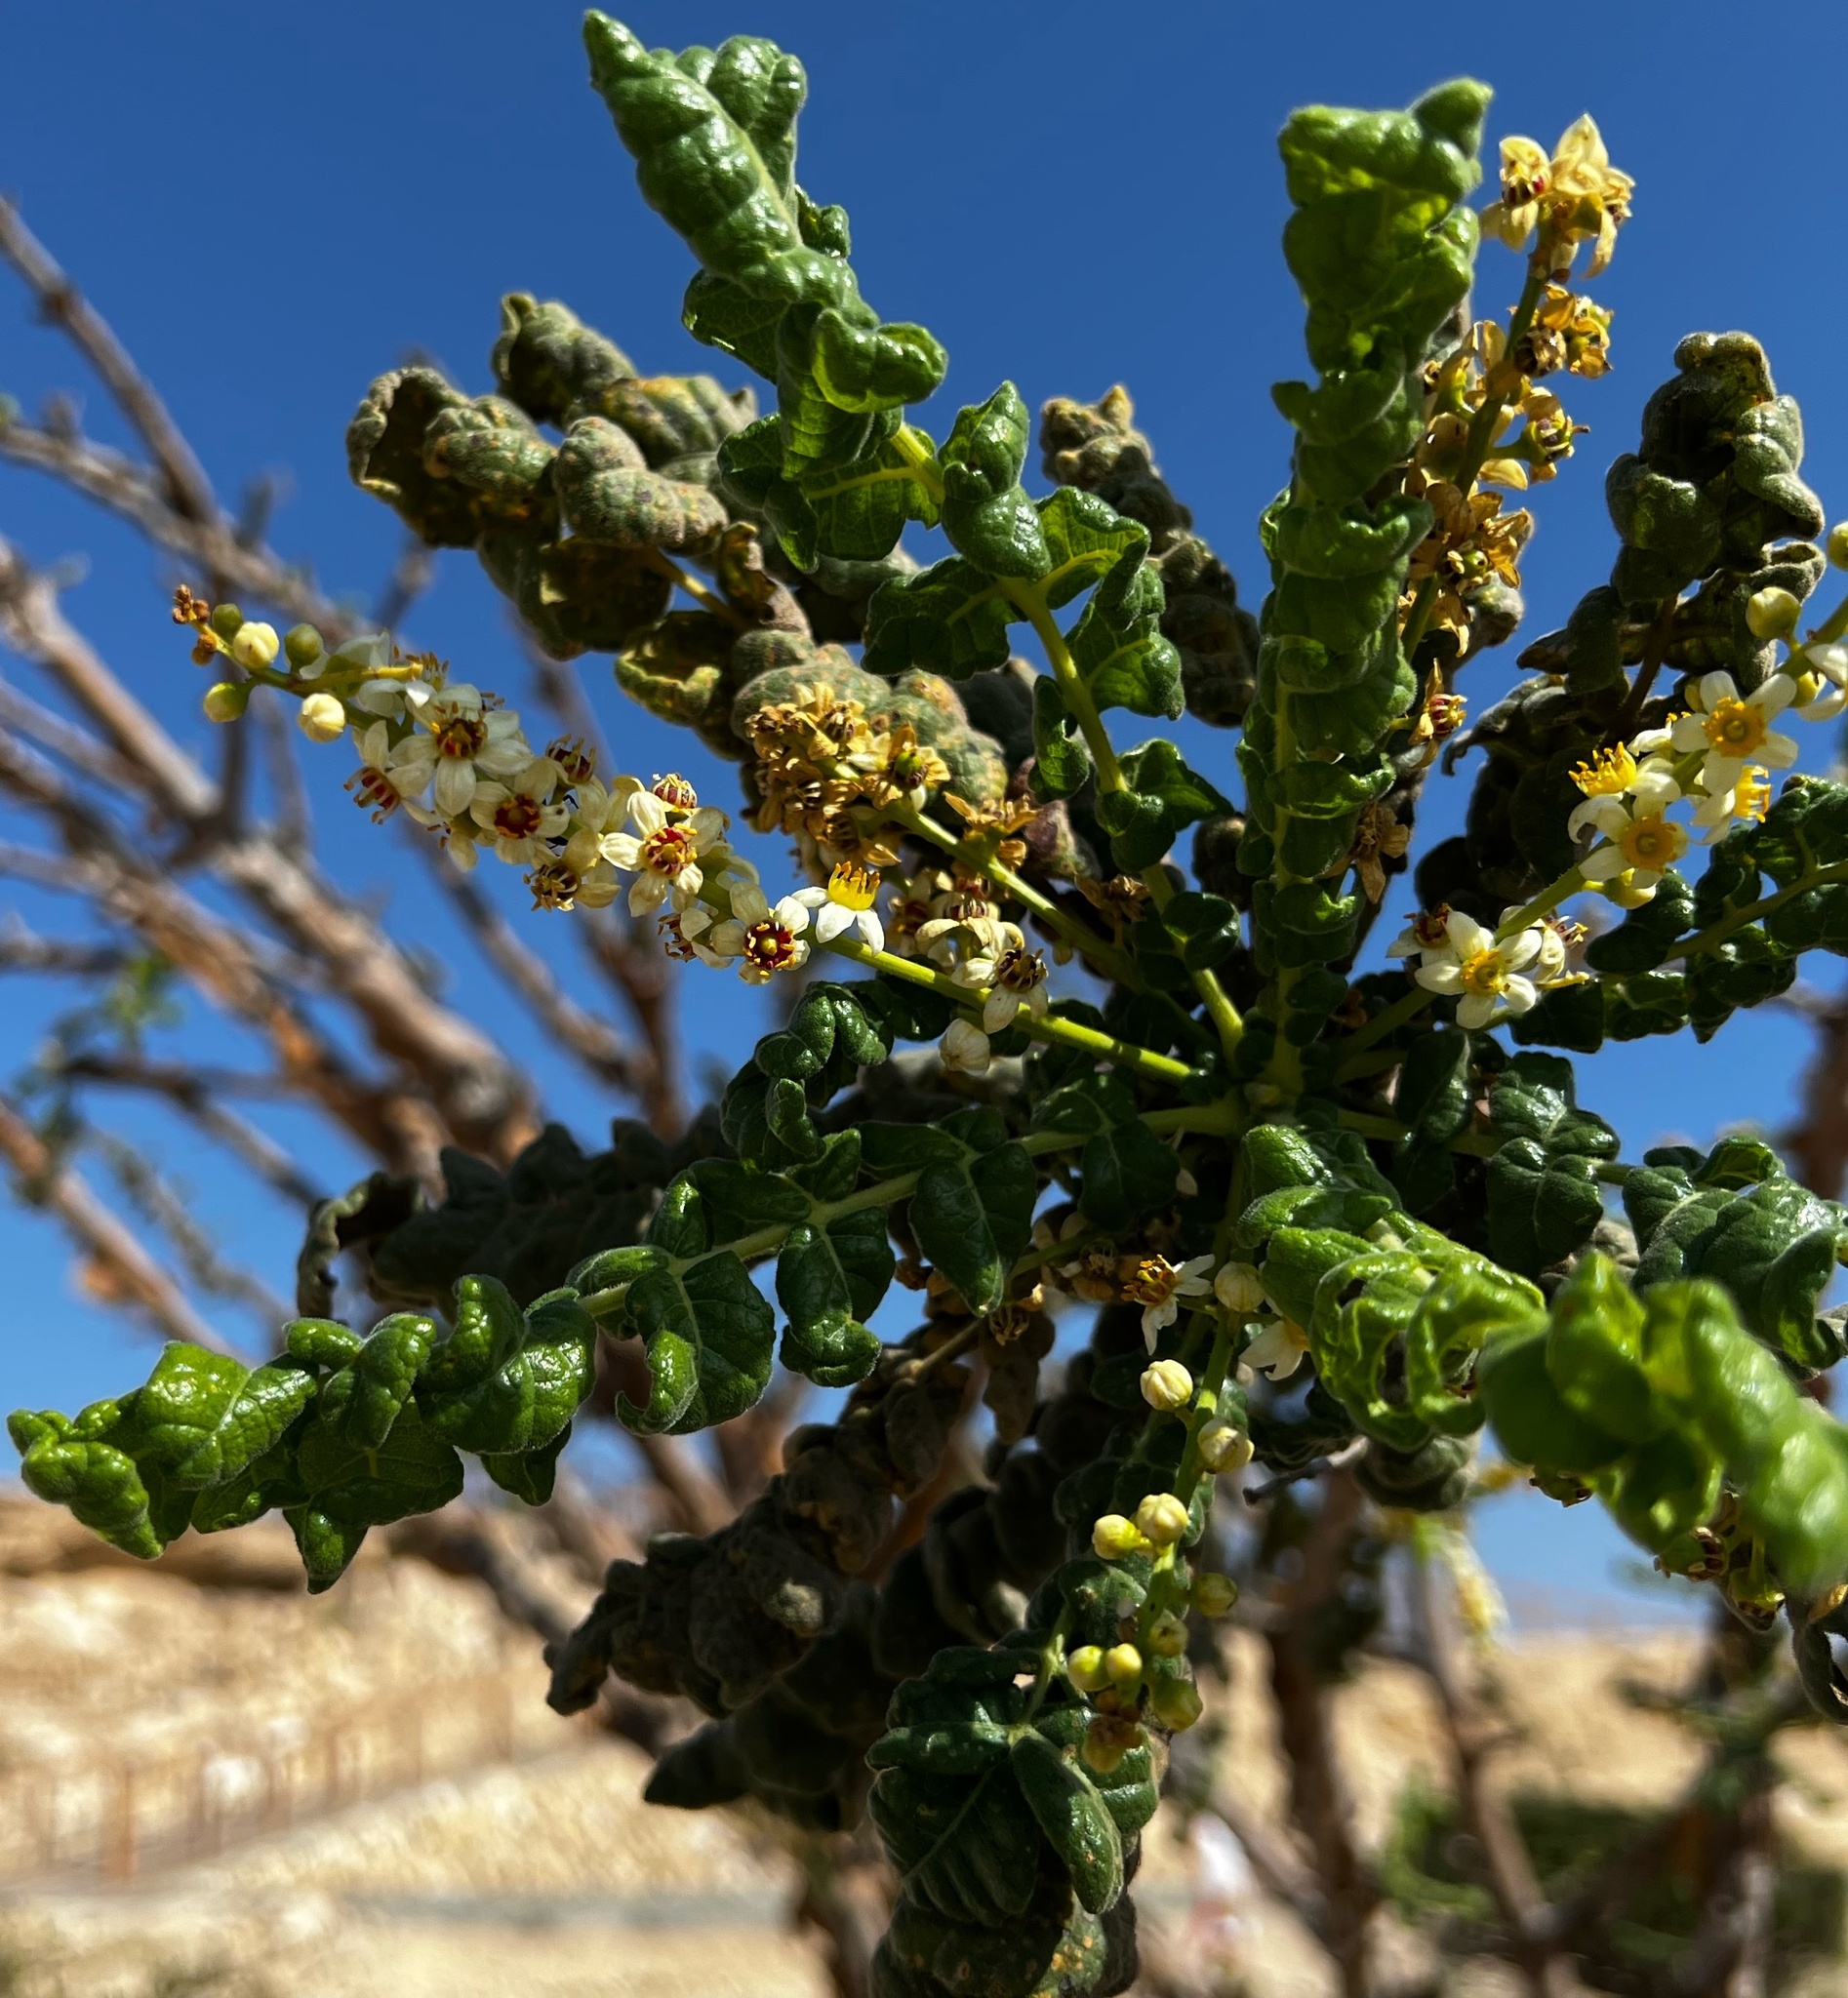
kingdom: Plantae
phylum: Tracheophyta
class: Magnoliopsida
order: Sapindales
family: Burseraceae
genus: Boswellia
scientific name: Boswellia sacra
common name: Olibanum-tree
